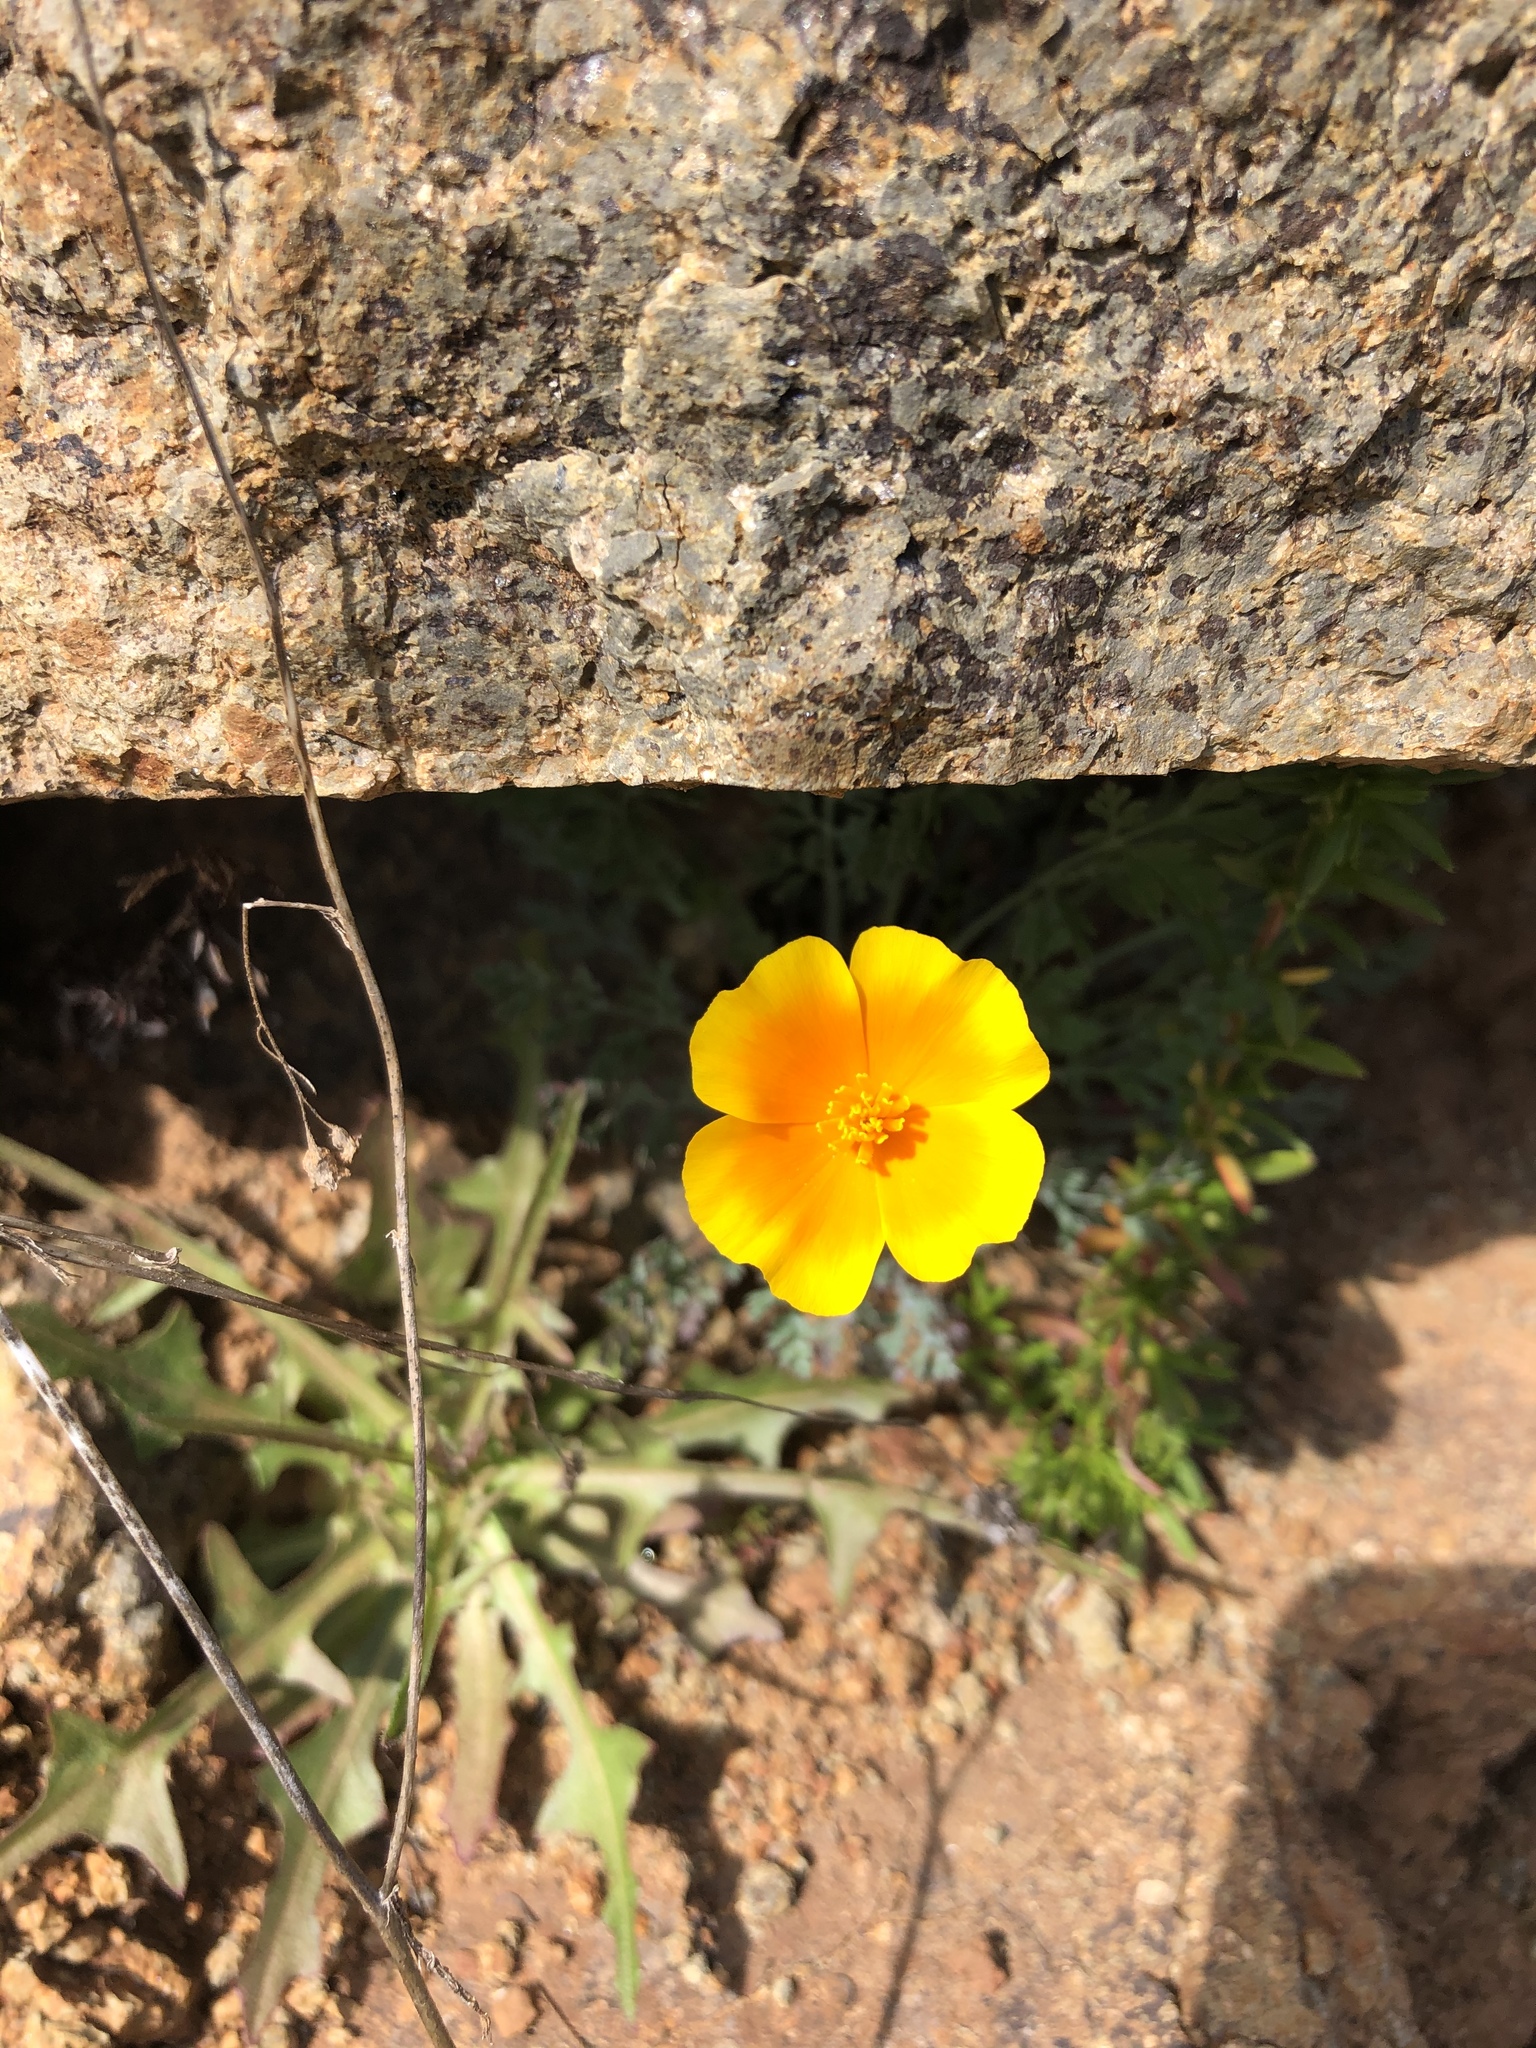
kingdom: Plantae
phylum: Tracheophyta
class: Magnoliopsida
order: Ranunculales
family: Papaveraceae
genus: Eschscholzia
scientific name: Eschscholzia californica
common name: California poppy
